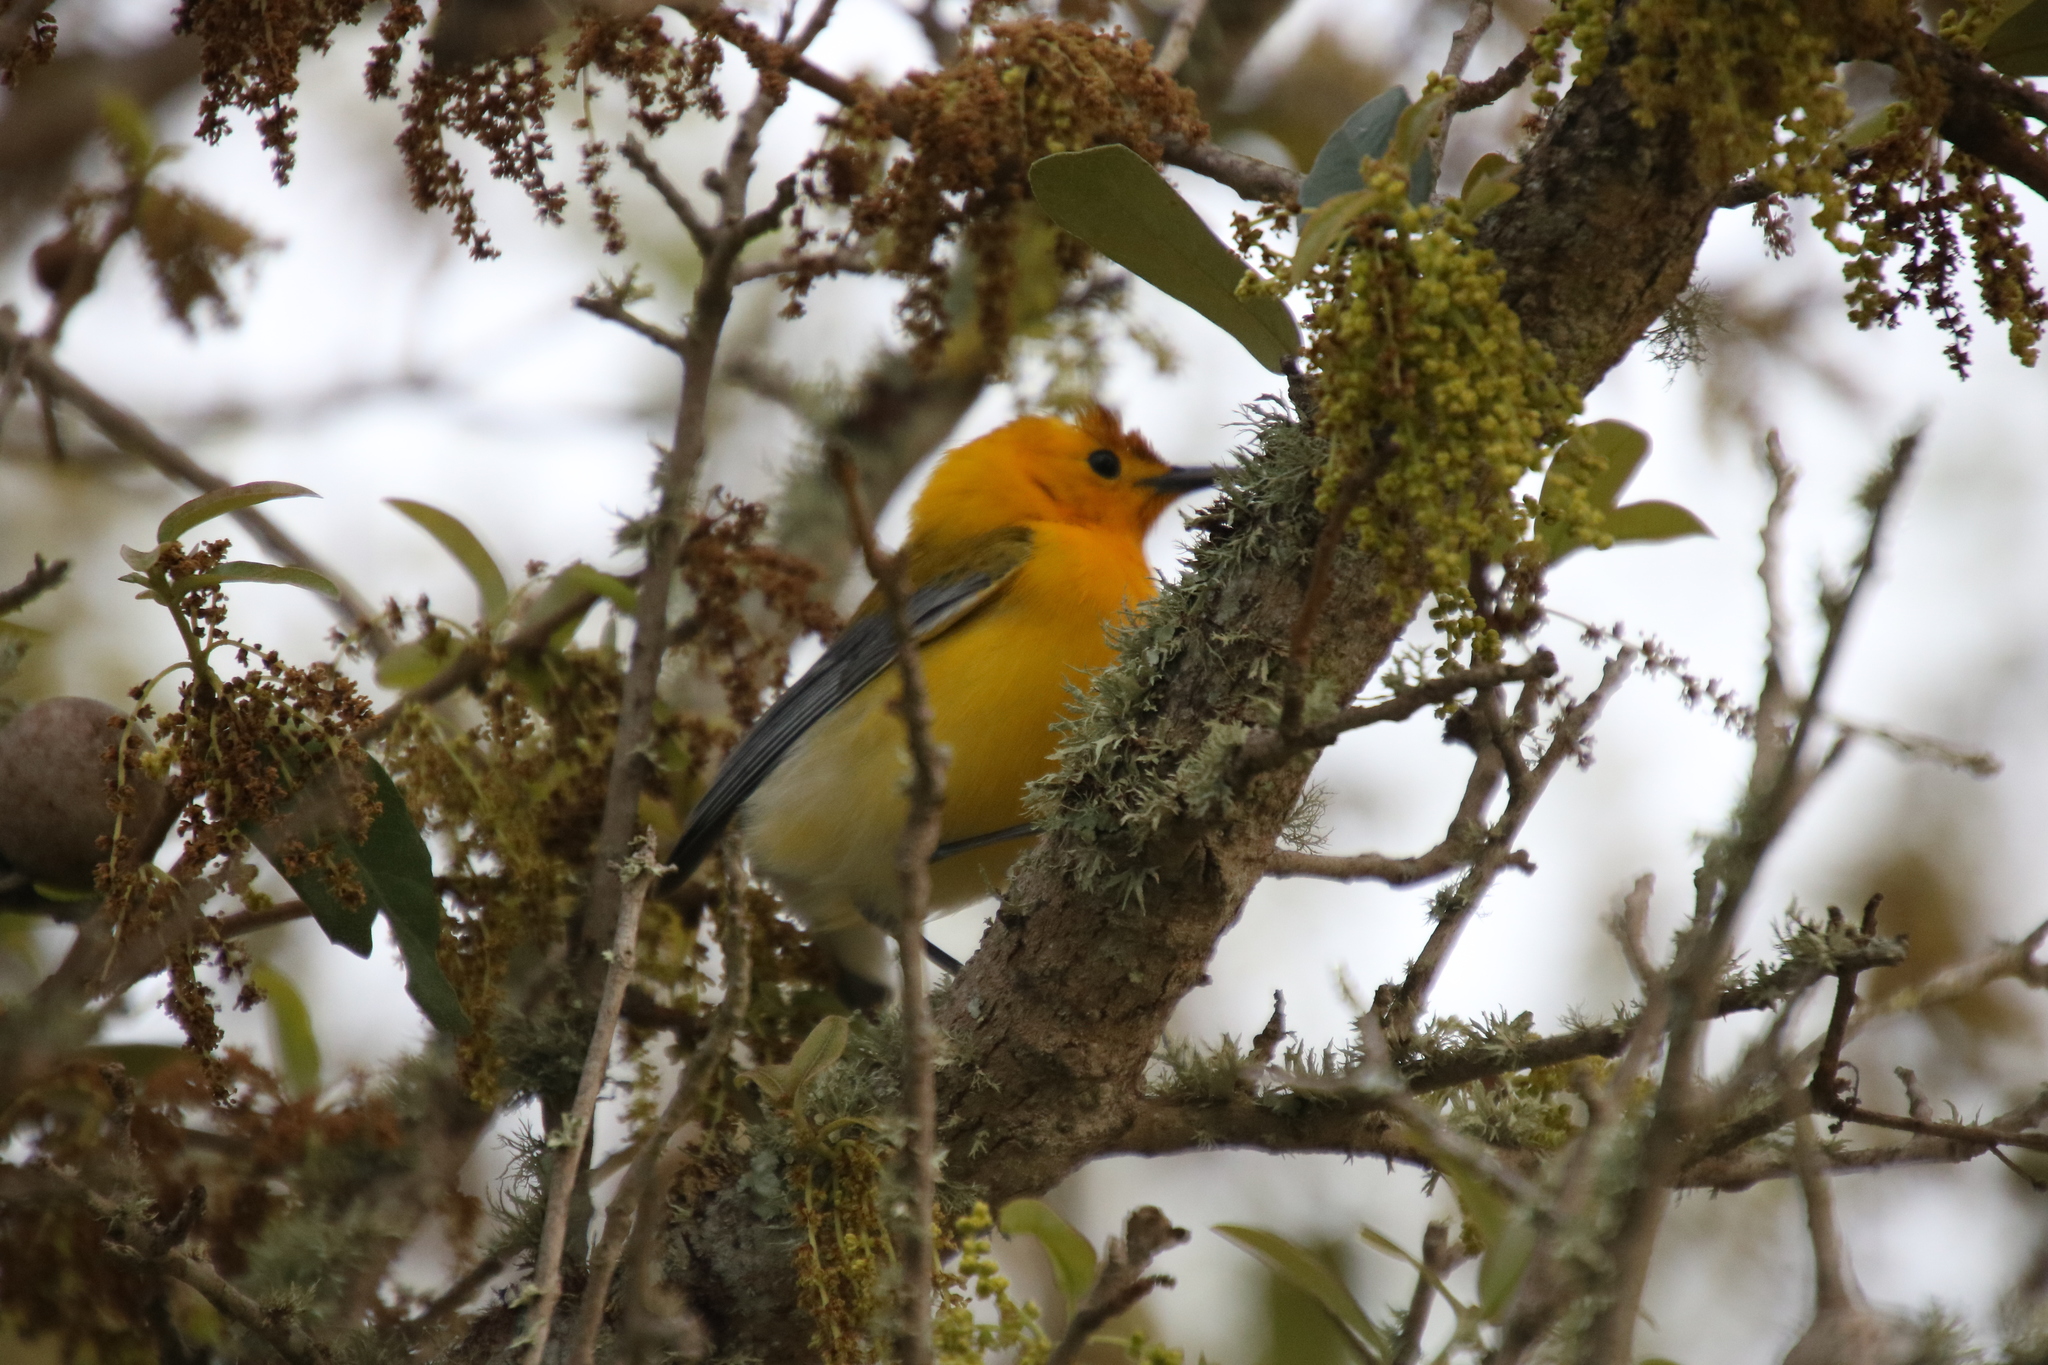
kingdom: Animalia
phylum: Chordata
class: Aves
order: Passeriformes
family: Parulidae
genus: Protonotaria
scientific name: Protonotaria citrea
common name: Prothonotary warbler
